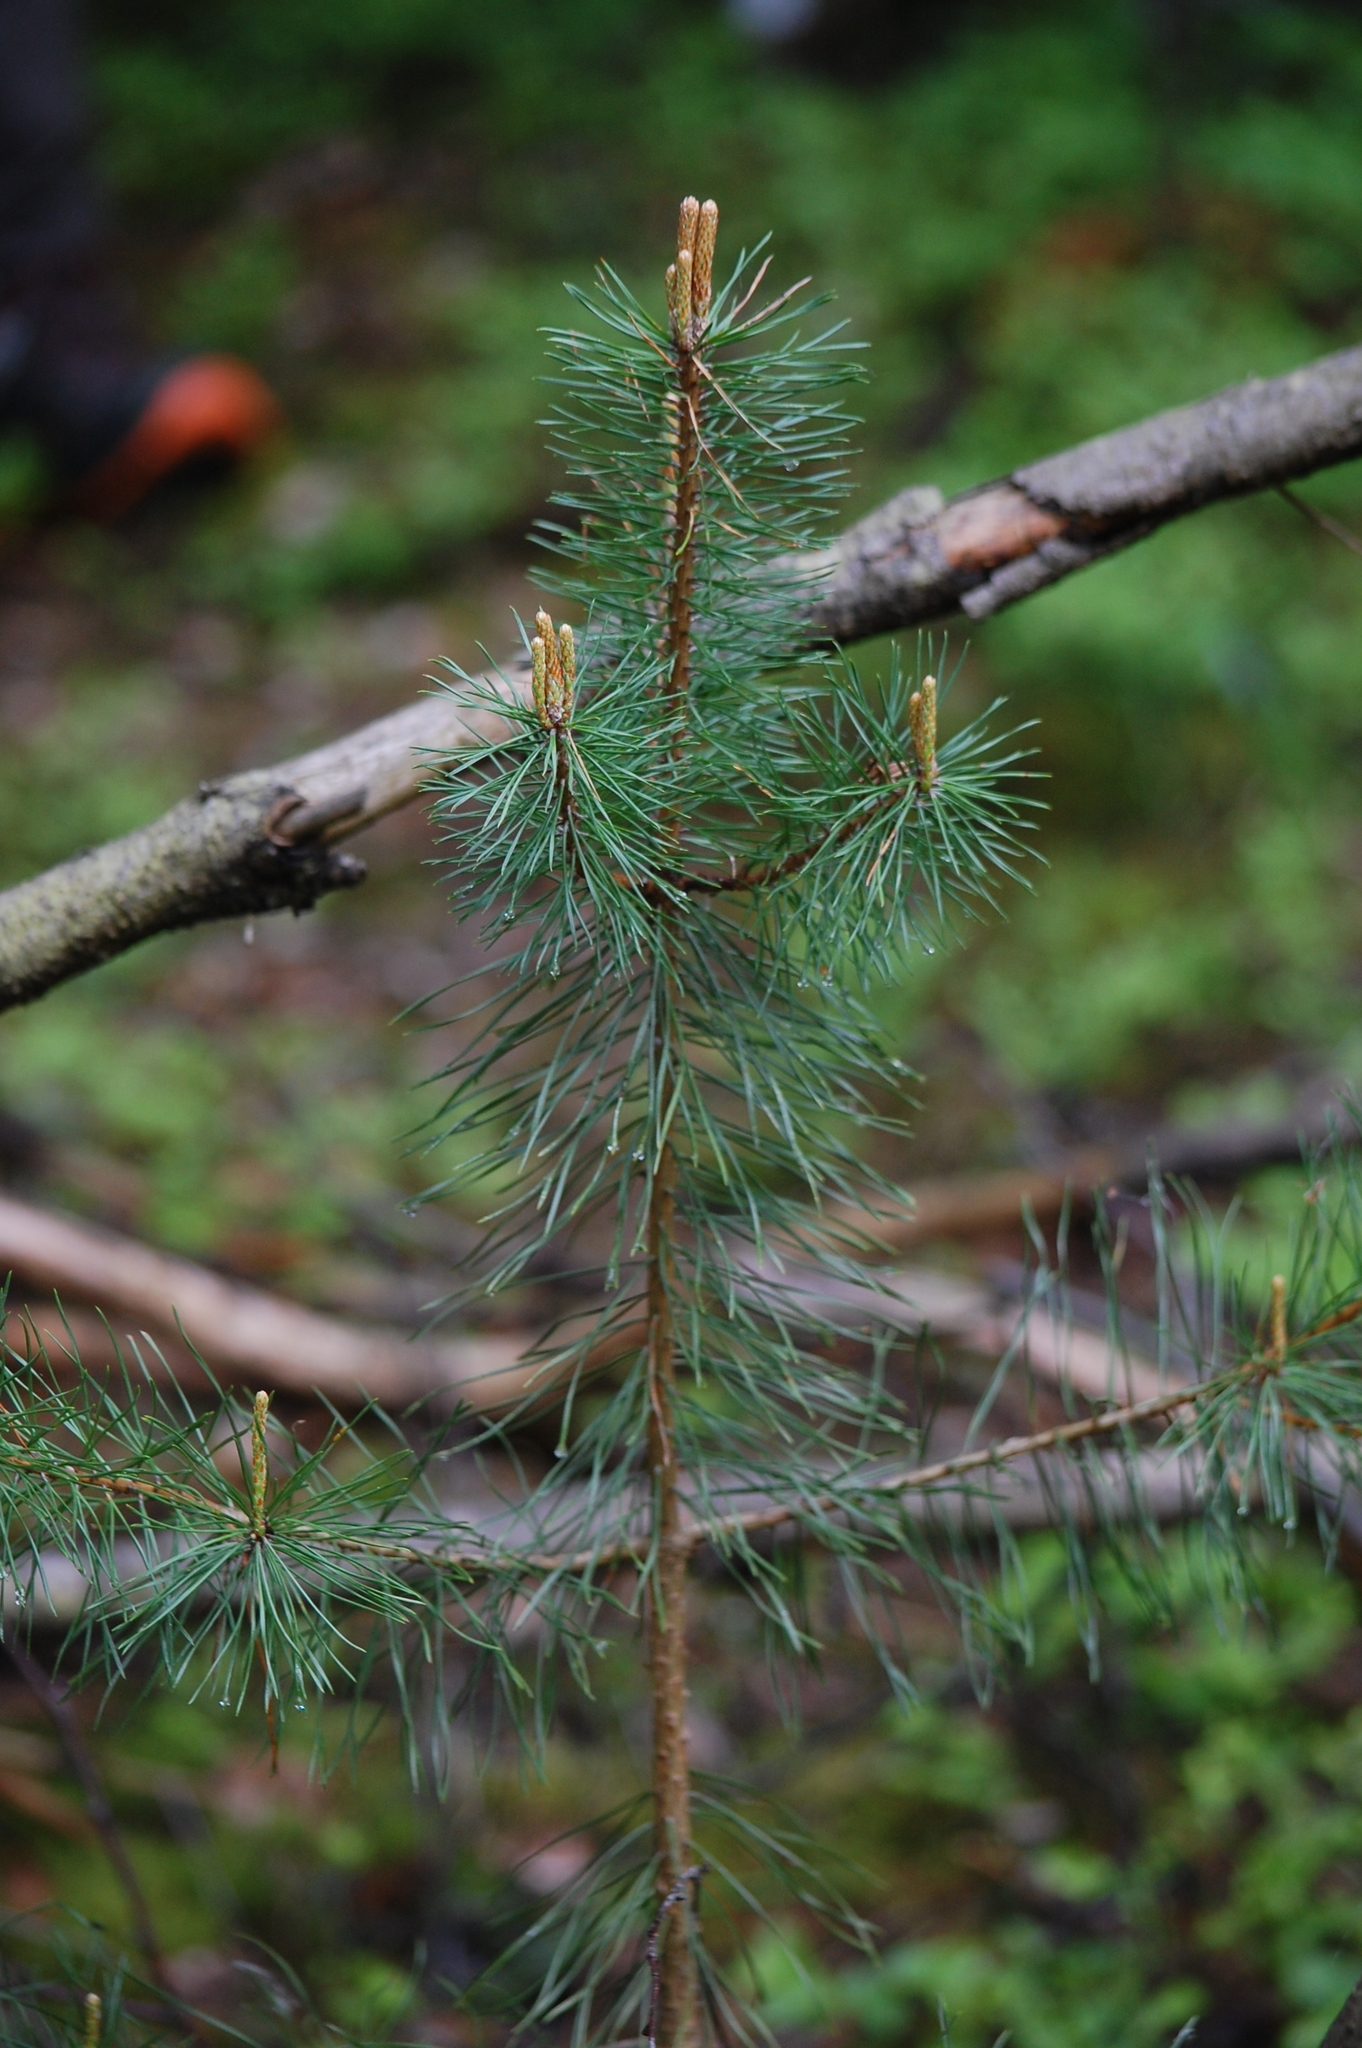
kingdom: Plantae
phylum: Tracheophyta
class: Pinopsida
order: Pinales
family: Pinaceae
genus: Pinus
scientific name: Pinus sylvestris
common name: Scots pine
